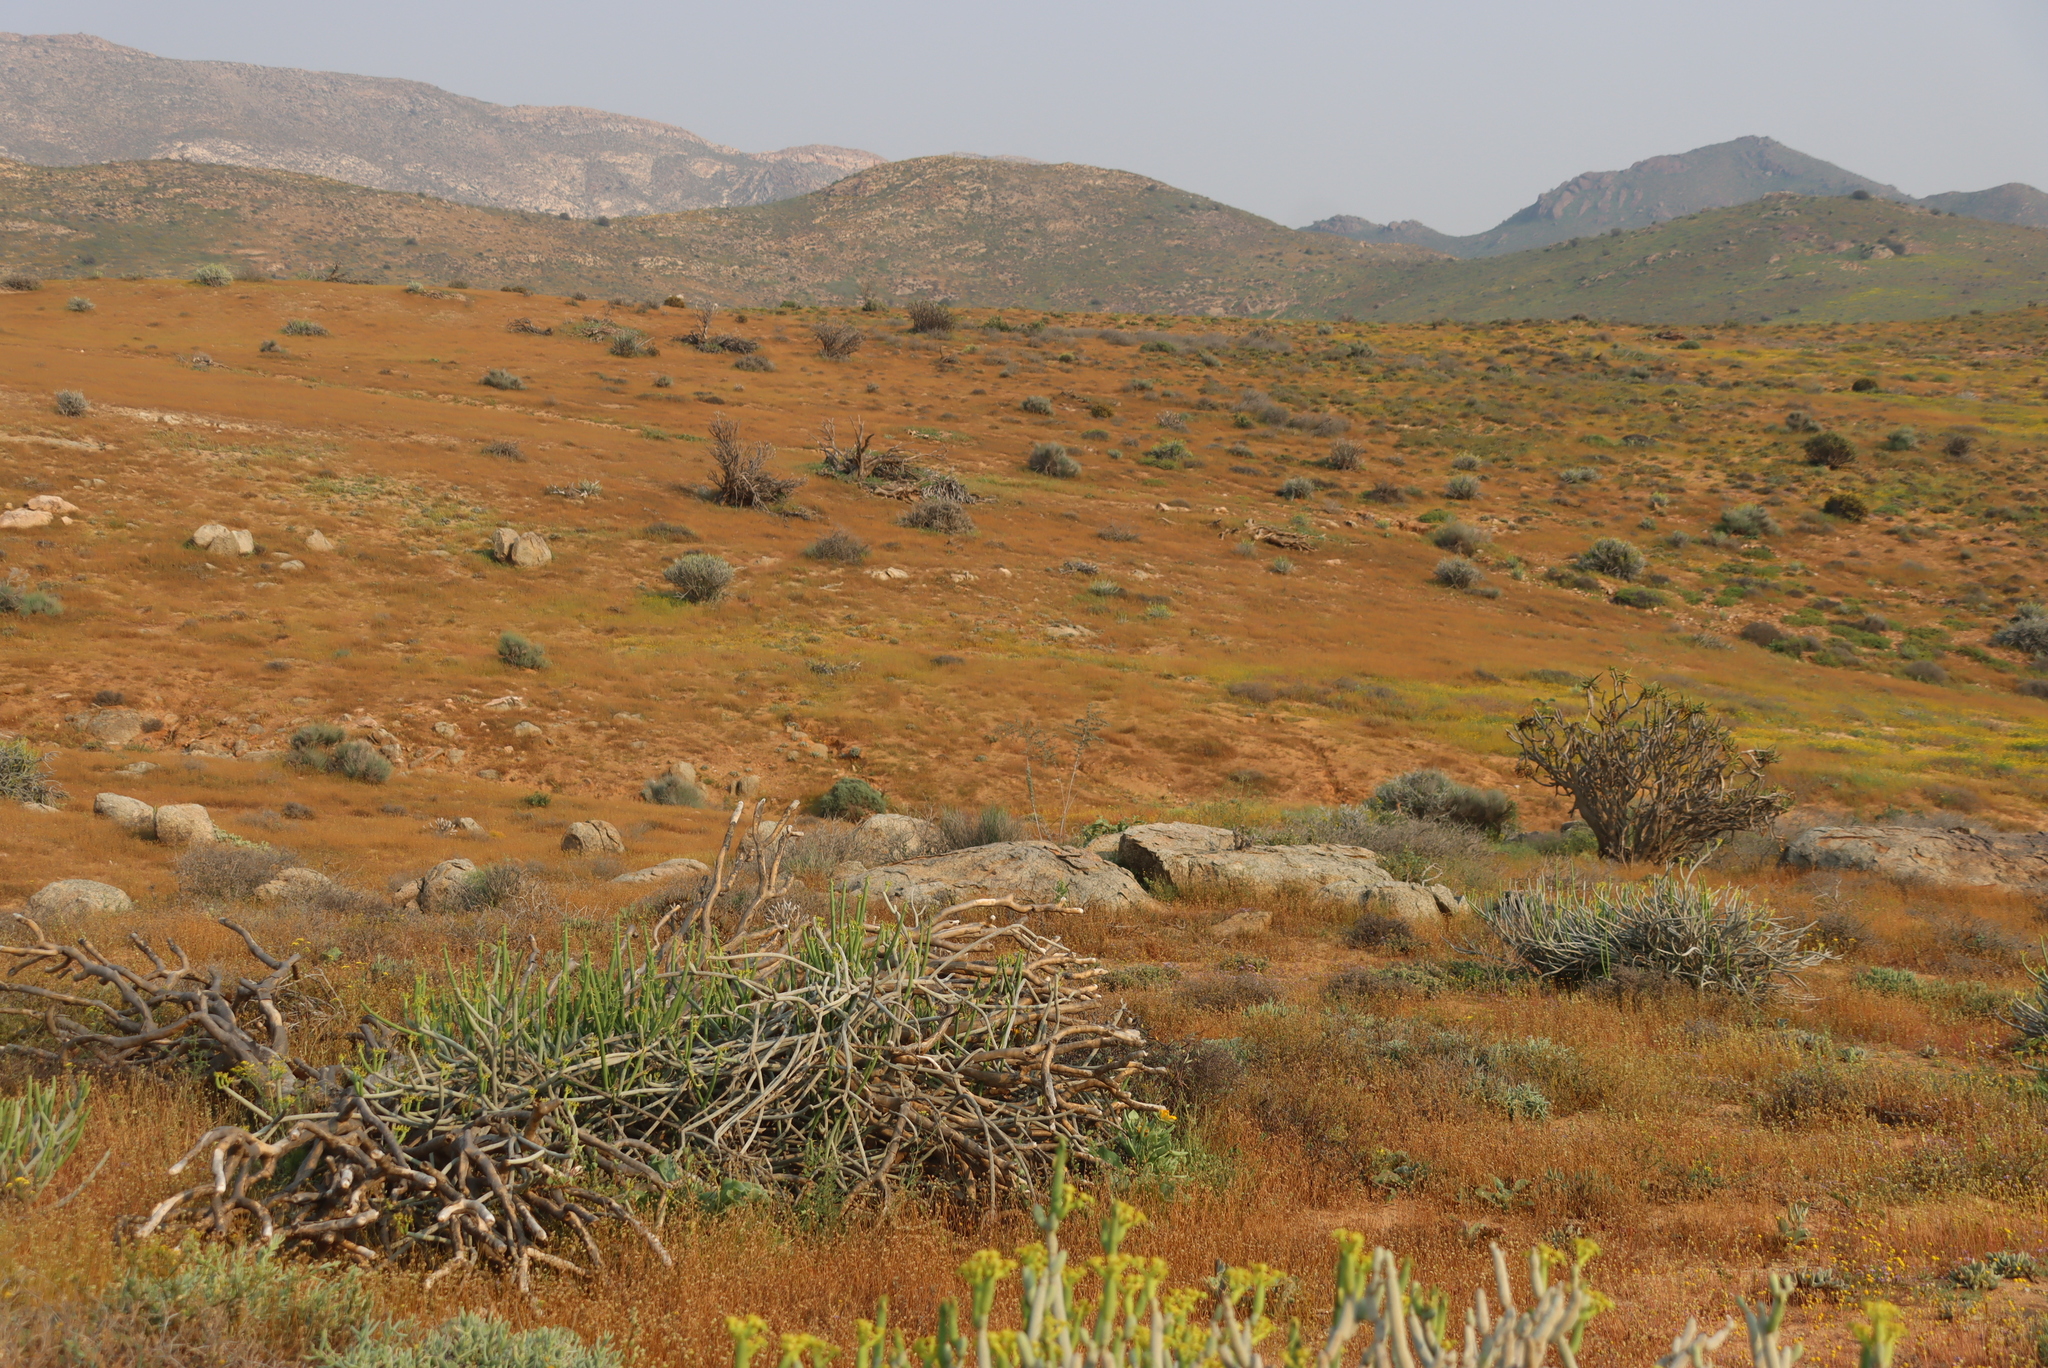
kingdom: Plantae
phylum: Tracheophyta
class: Liliopsida
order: Asparagales
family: Asphodelaceae
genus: Aloidendron
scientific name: Aloidendron ramosissimum
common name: Bush quiver tree
